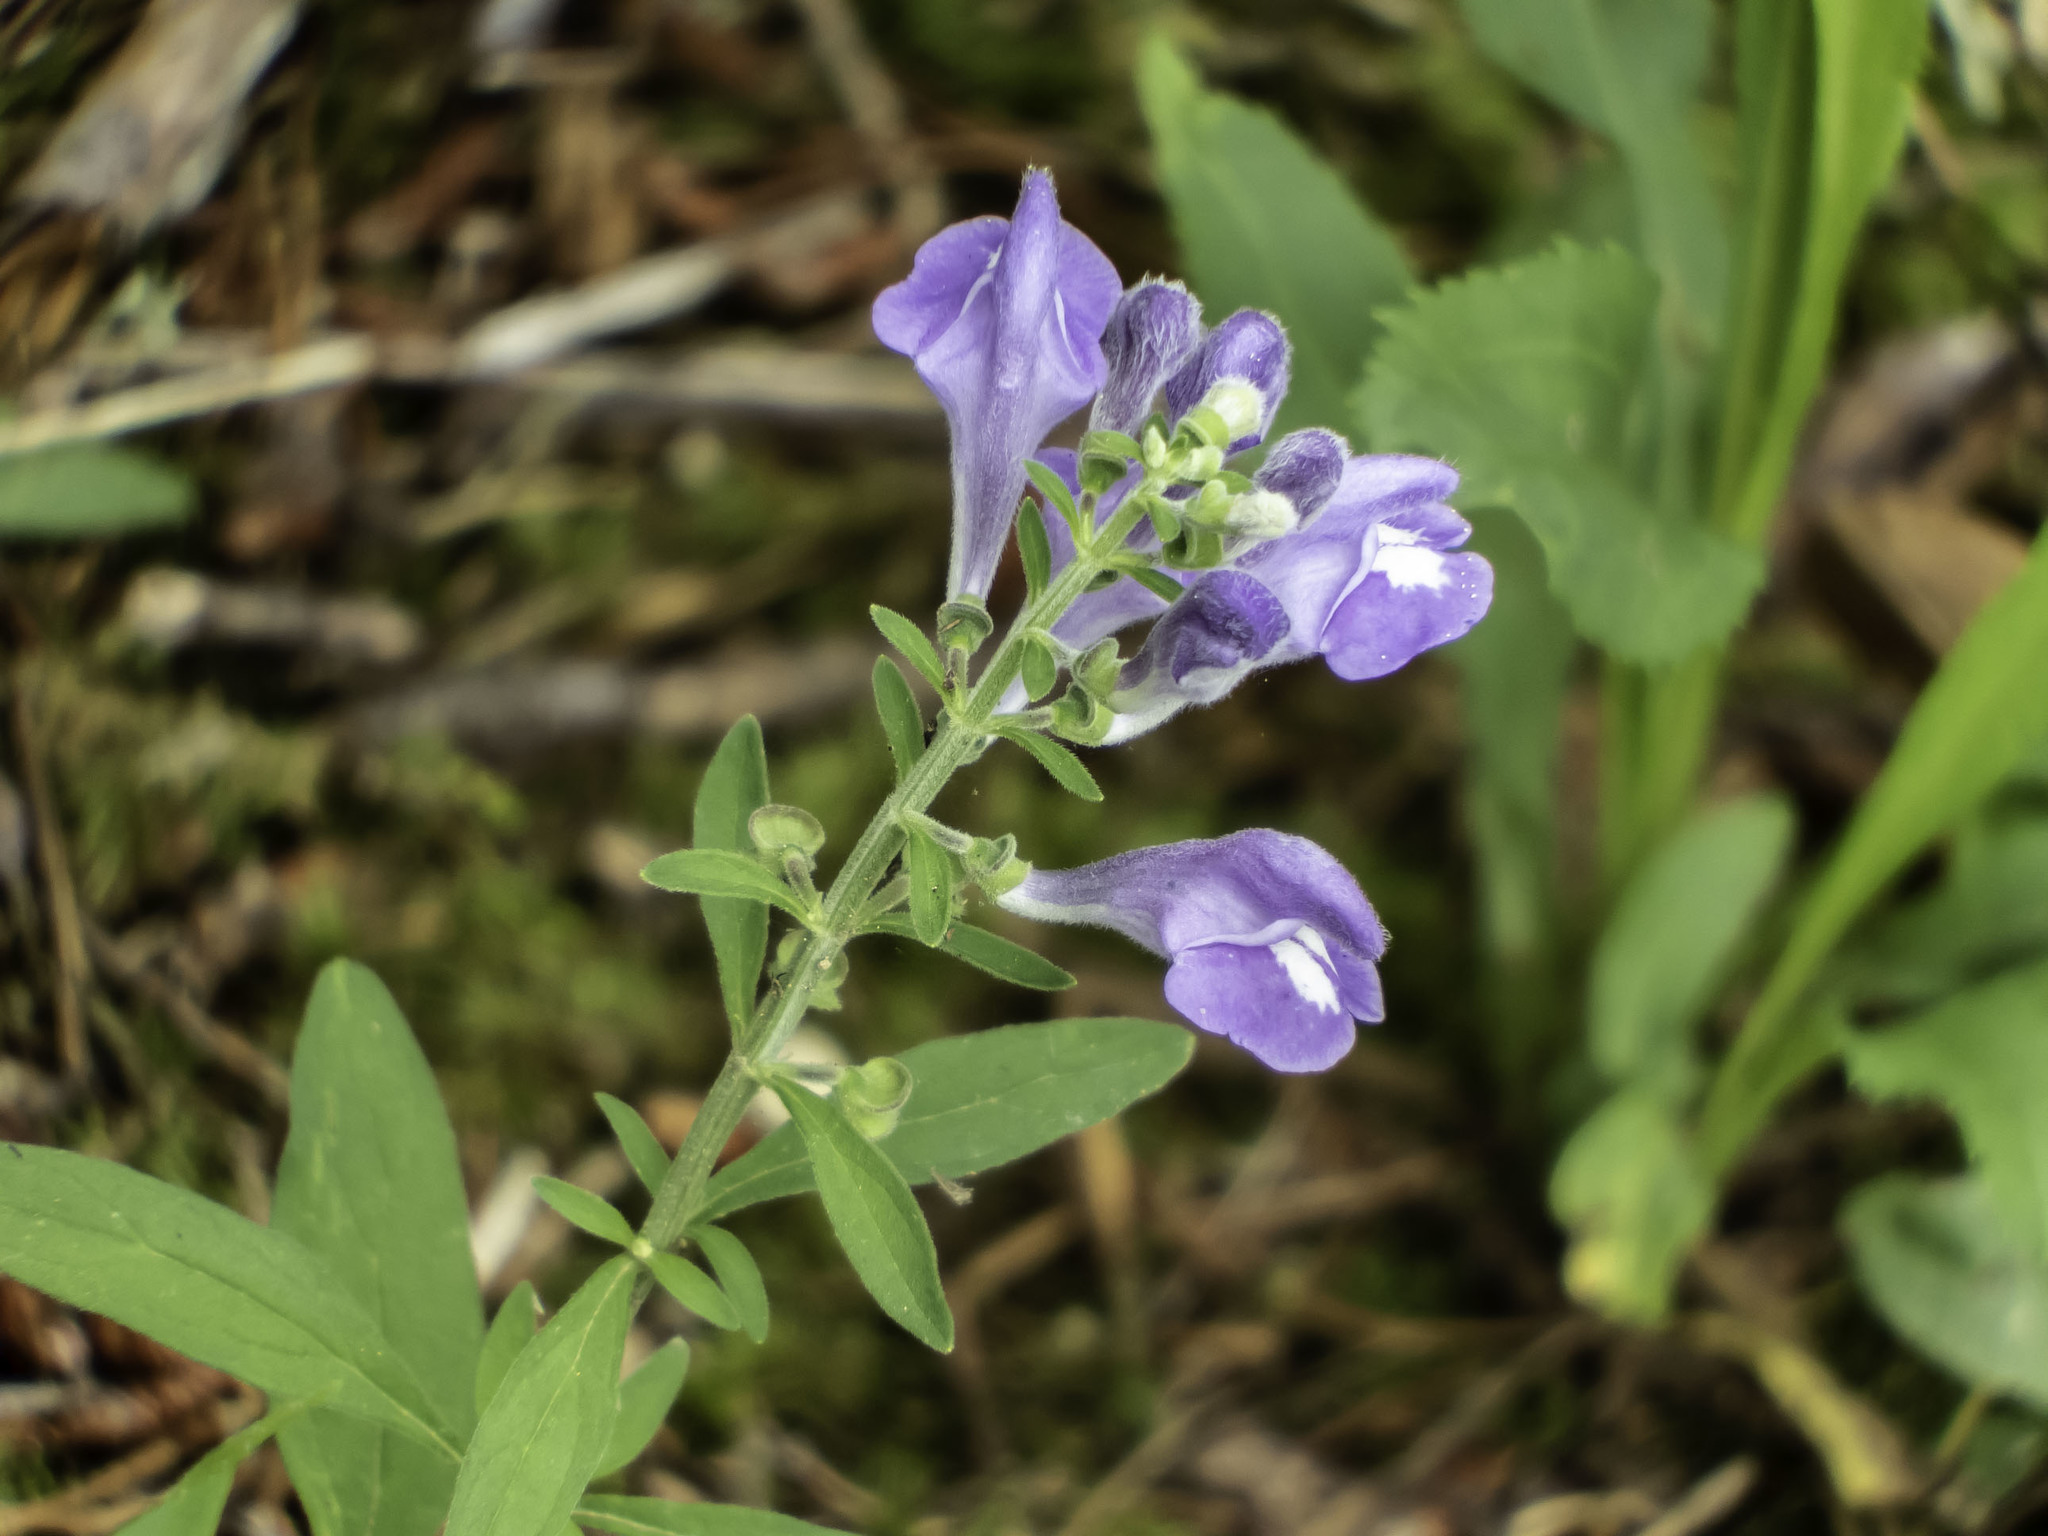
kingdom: Plantae
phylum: Tracheophyta
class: Magnoliopsida
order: Lamiales
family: Lamiaceae
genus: Scutellaria
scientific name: Scutellaria integrifolia
